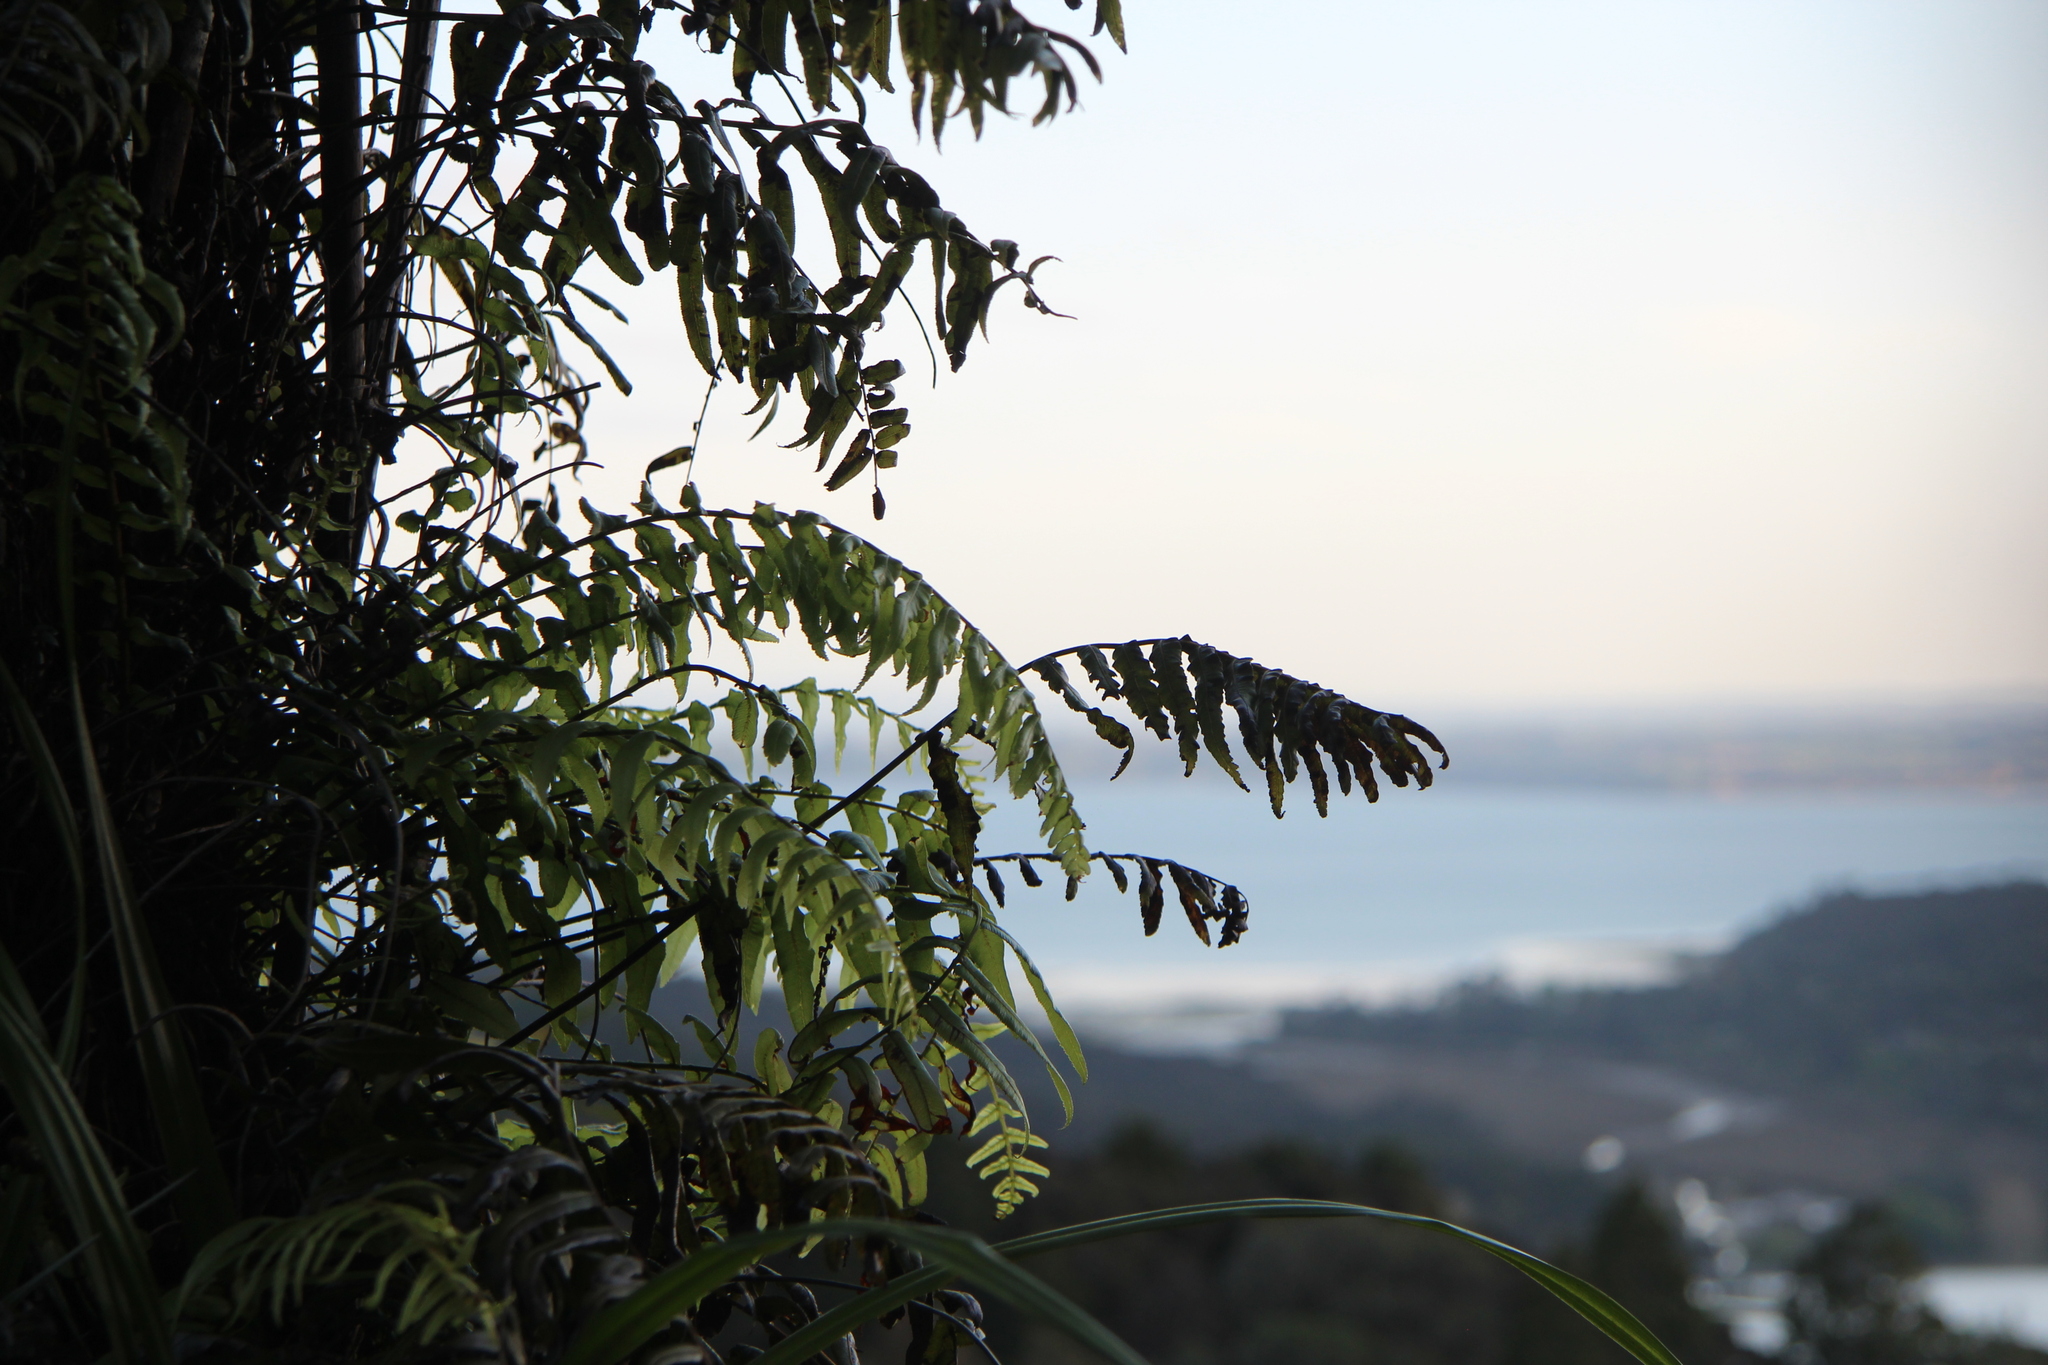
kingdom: Plantae
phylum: Tracheophyta
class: Polypodiopsida
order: Polypodiales
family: Blechnaceae
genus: Icarus
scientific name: Icarus filiformis
